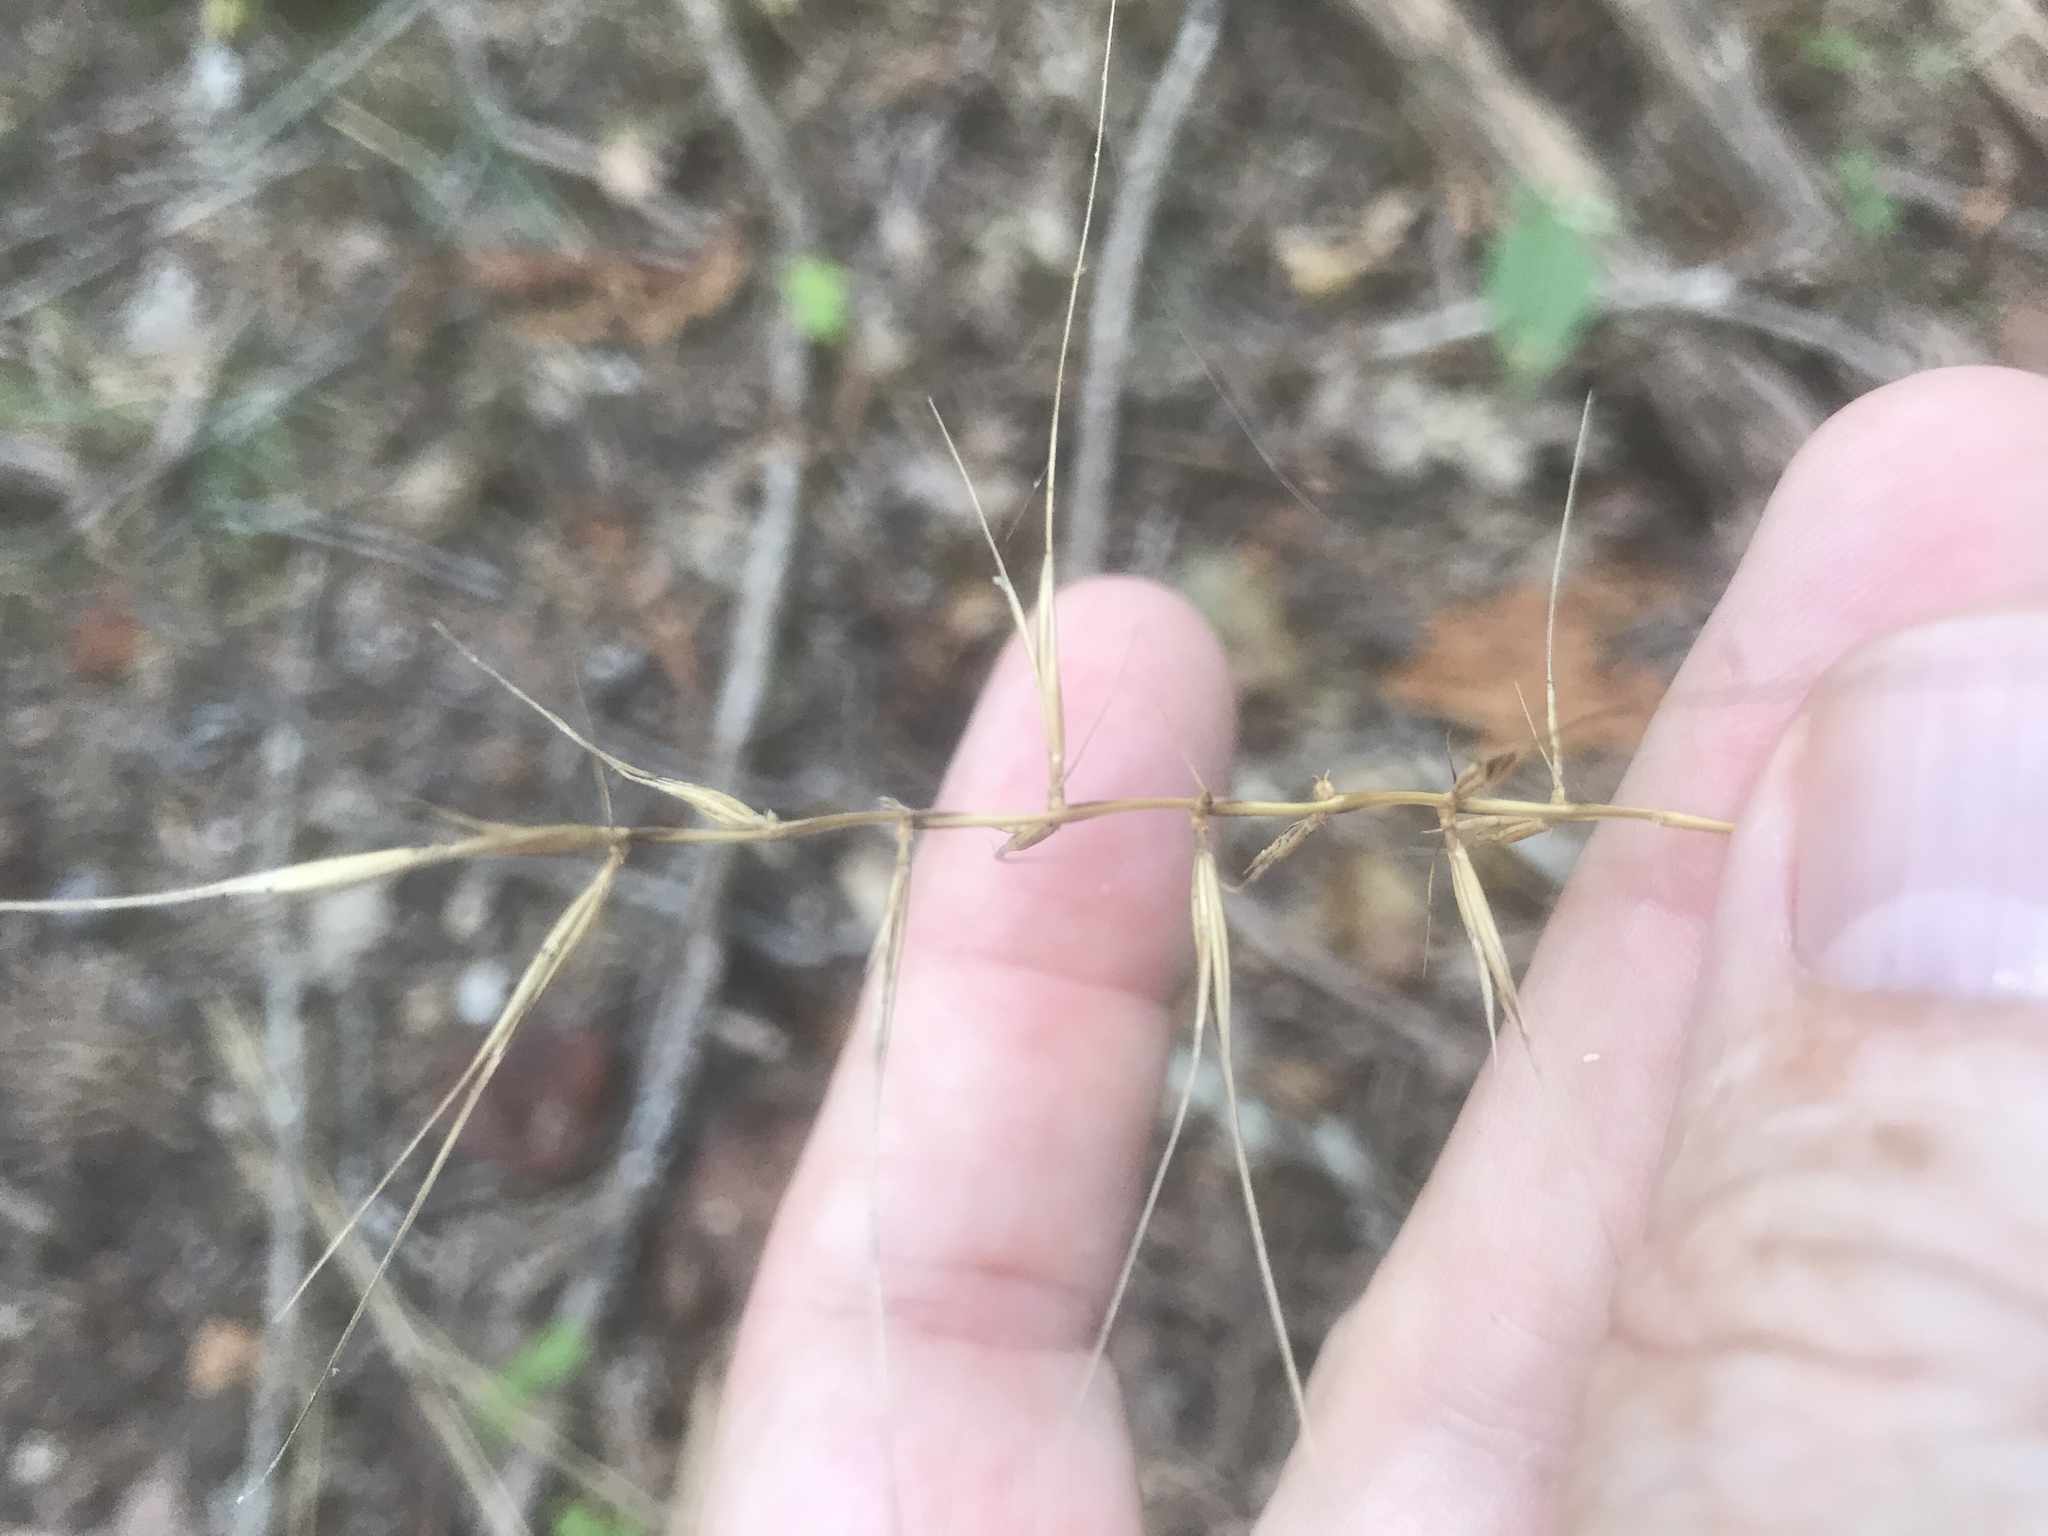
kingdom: Plantae
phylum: Tracheophyta
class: Liliopsida
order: Poales
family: Poaceae
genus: Elymus
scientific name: Elymus hystrix
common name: Bottlebrush grass
